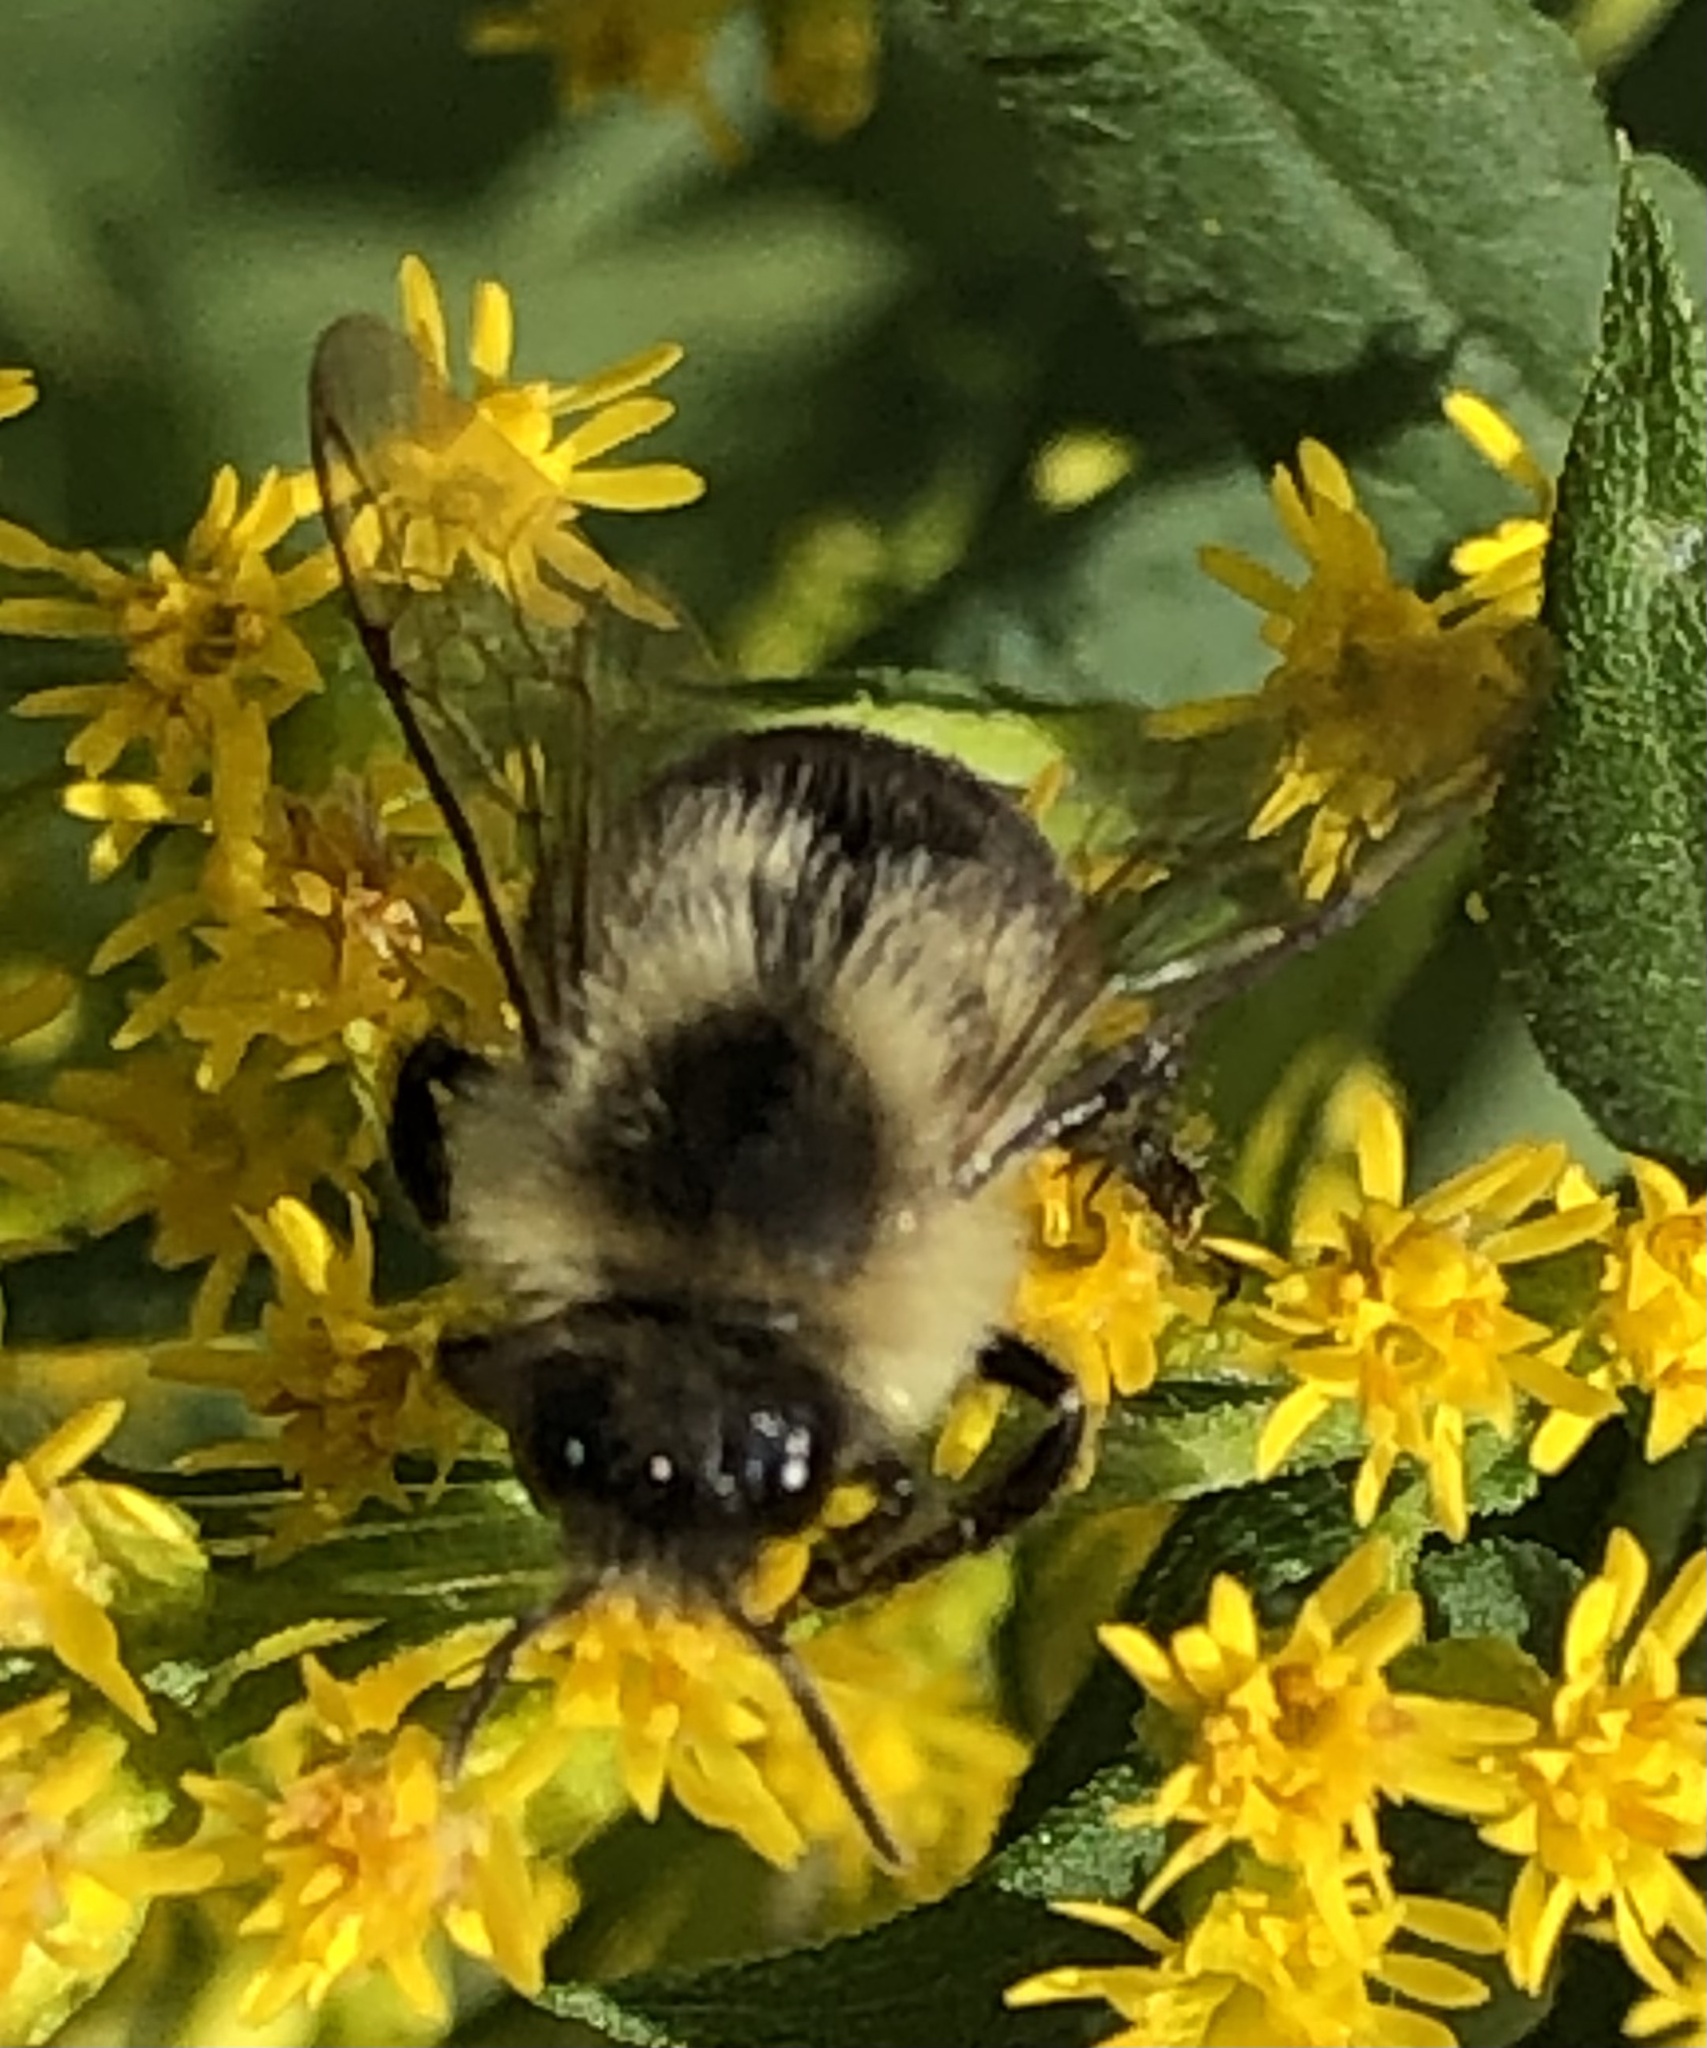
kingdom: Animalia
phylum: Arthropoda
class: Insecta
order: Hymenoptera
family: Apidae
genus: Bombus
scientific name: Bombus impatiens
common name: Common eastern bumble bee
